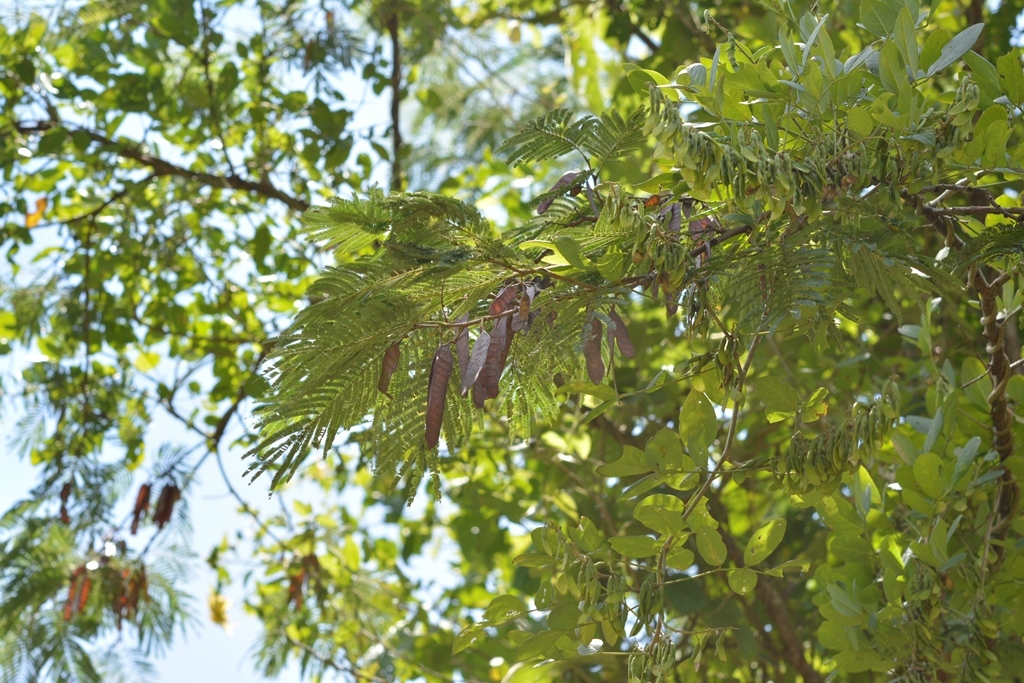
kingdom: Plantae
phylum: Tracheophyta
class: Magnoliopsida
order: Fabales
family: Fabaceae
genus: Leucaena
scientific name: Leucaena collinsii
